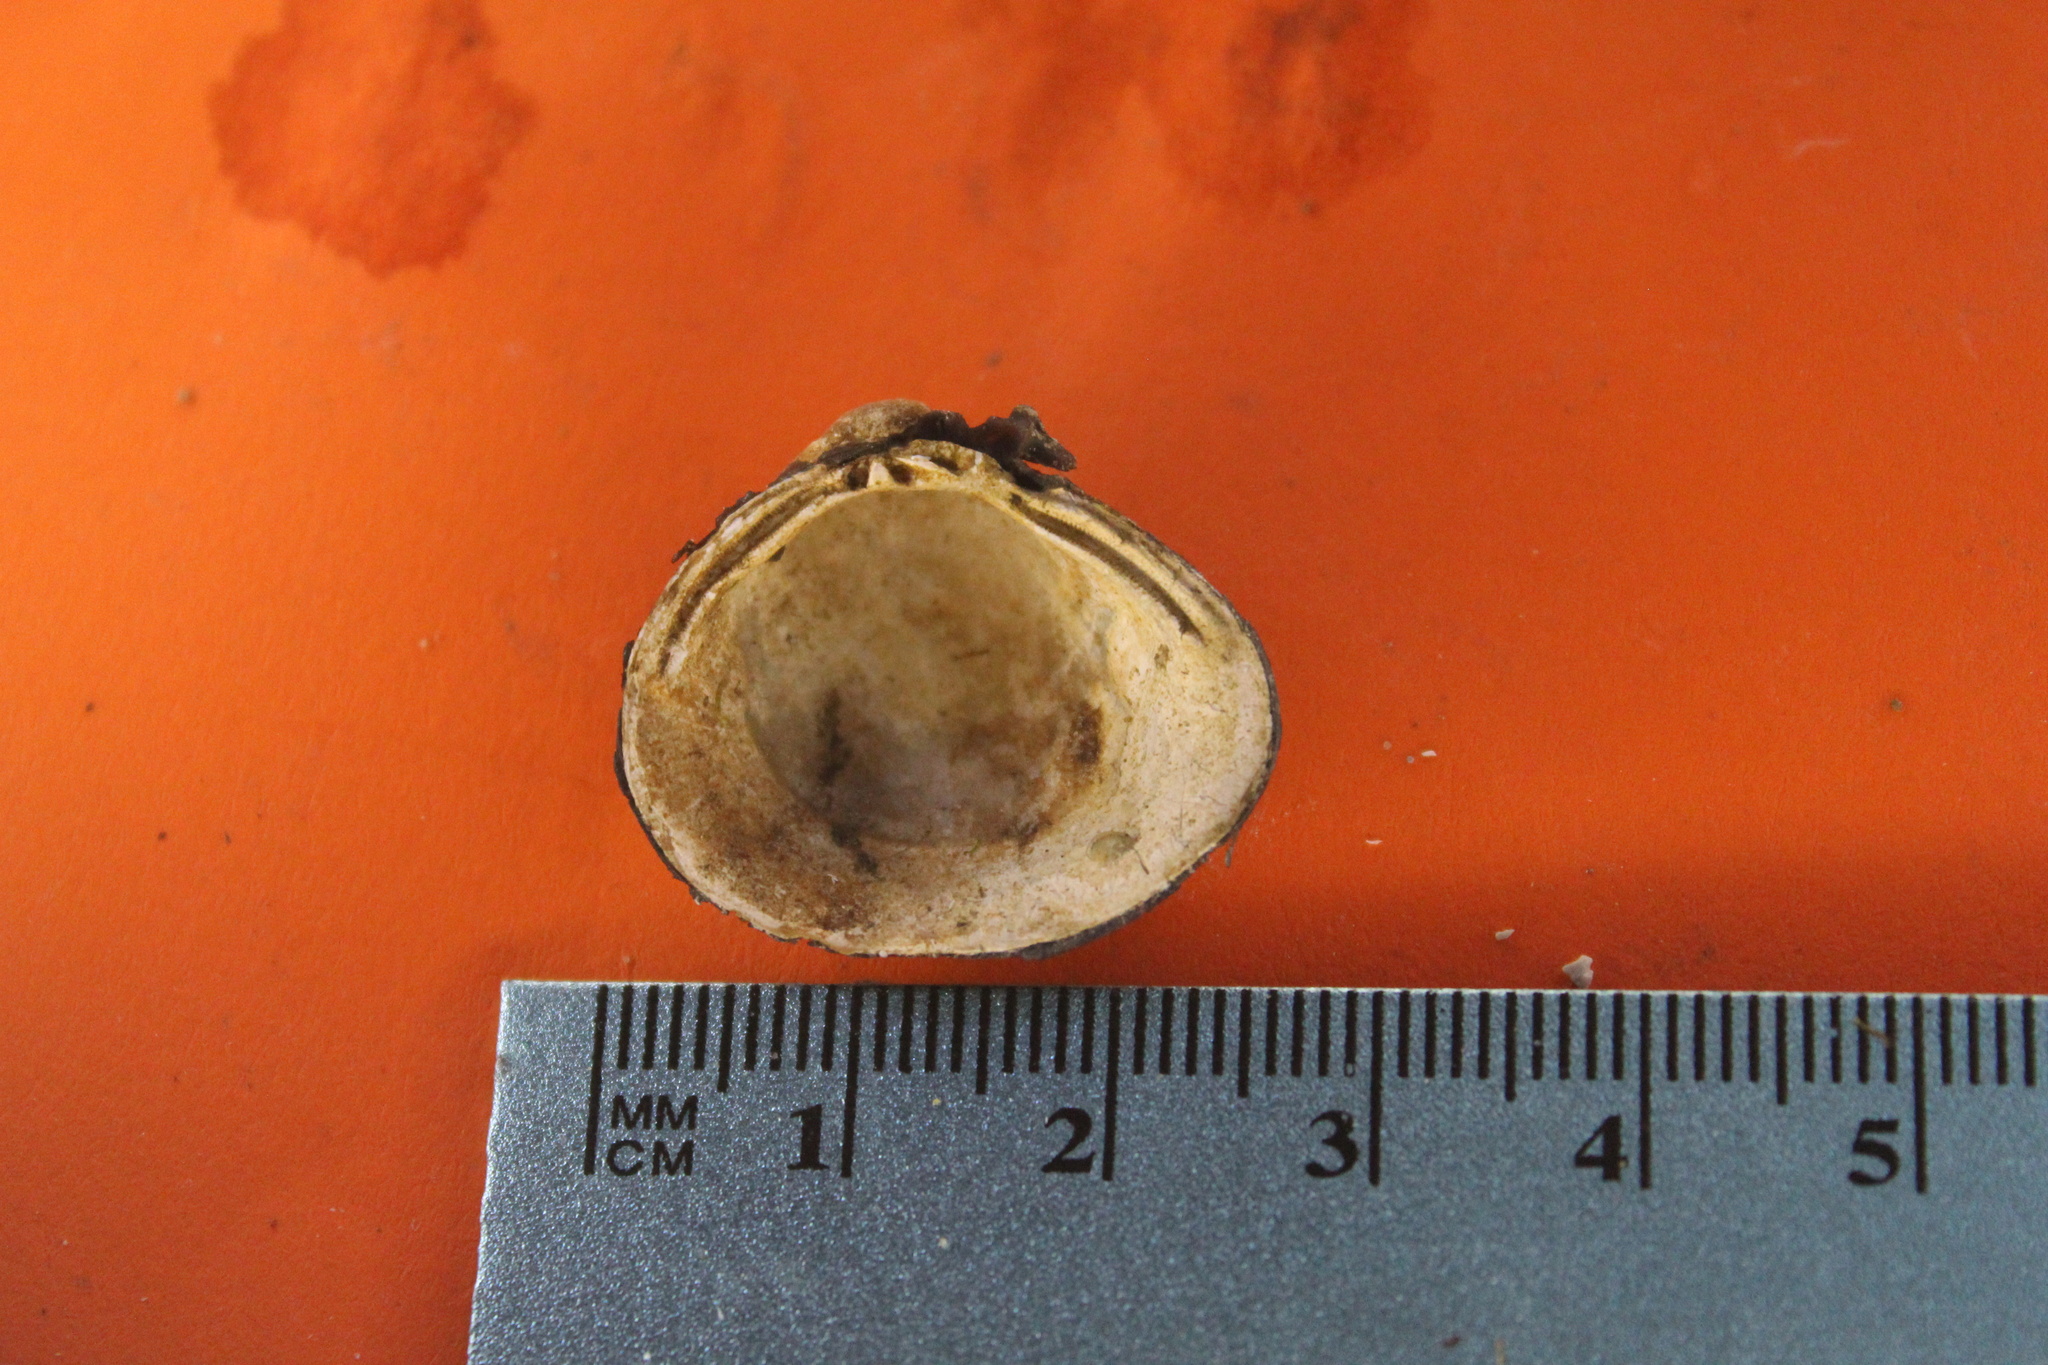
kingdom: Animalia
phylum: Mollusca
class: Bivalvia
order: Venerida
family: Cyrenidae
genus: Corbicula
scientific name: Corbicula fluminea
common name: Asian clam
